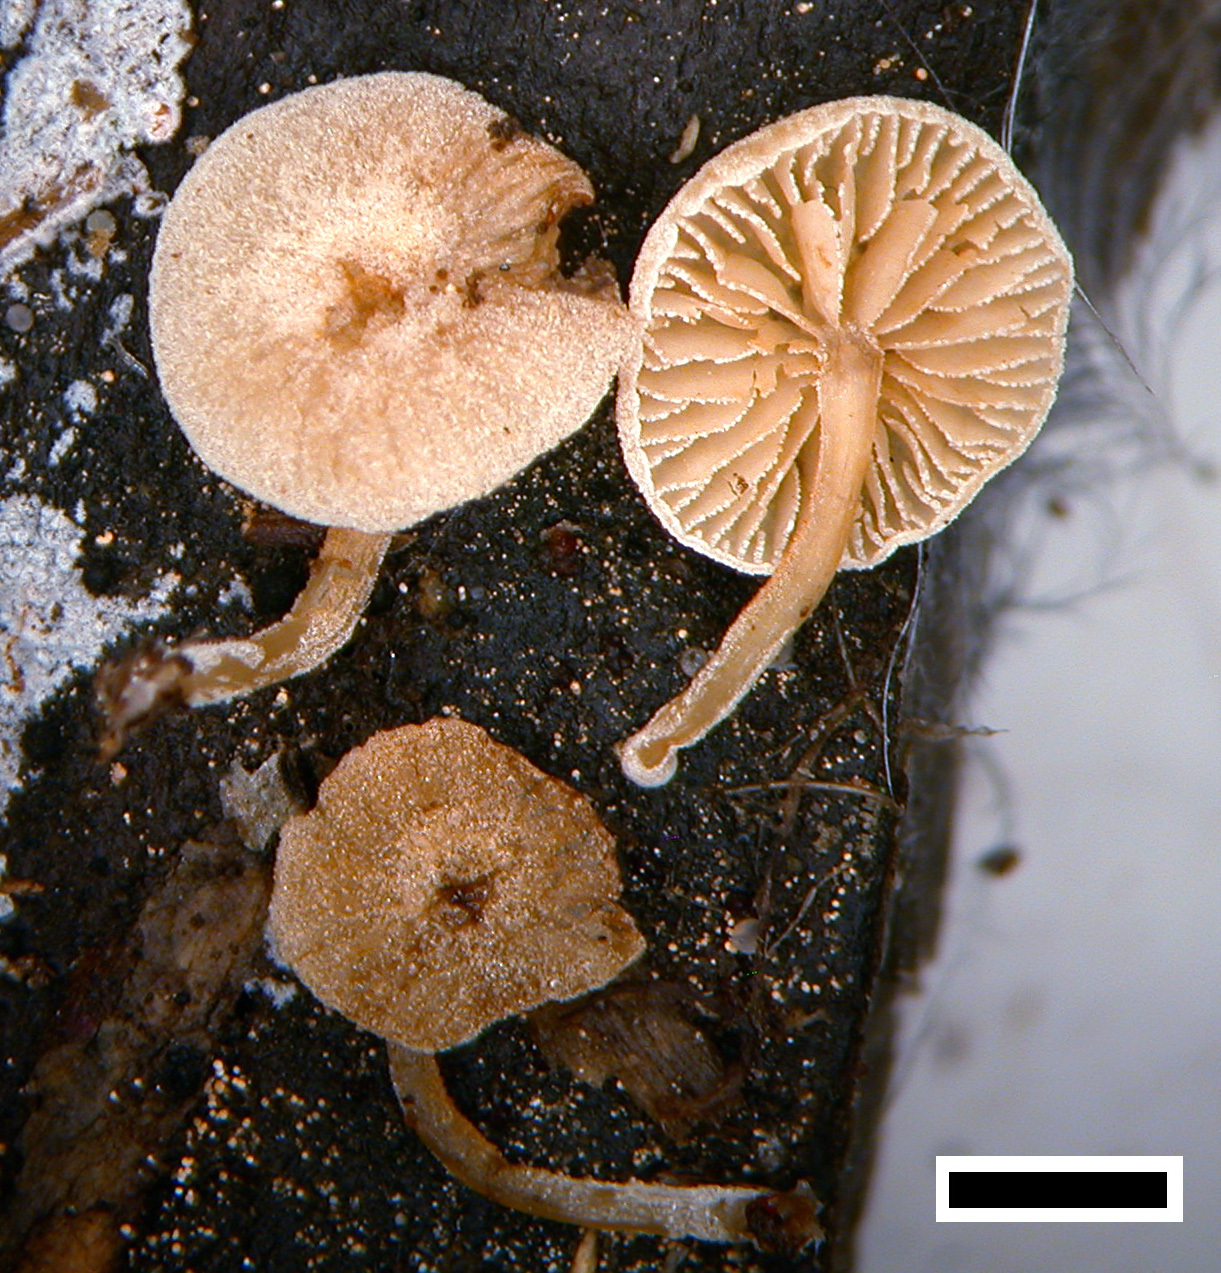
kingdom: Fungi
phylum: Basidiomycota
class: Agaricomycetes
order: Agaricales
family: Crepidotaceae
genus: Simocybe
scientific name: Simocybe austrorubi
